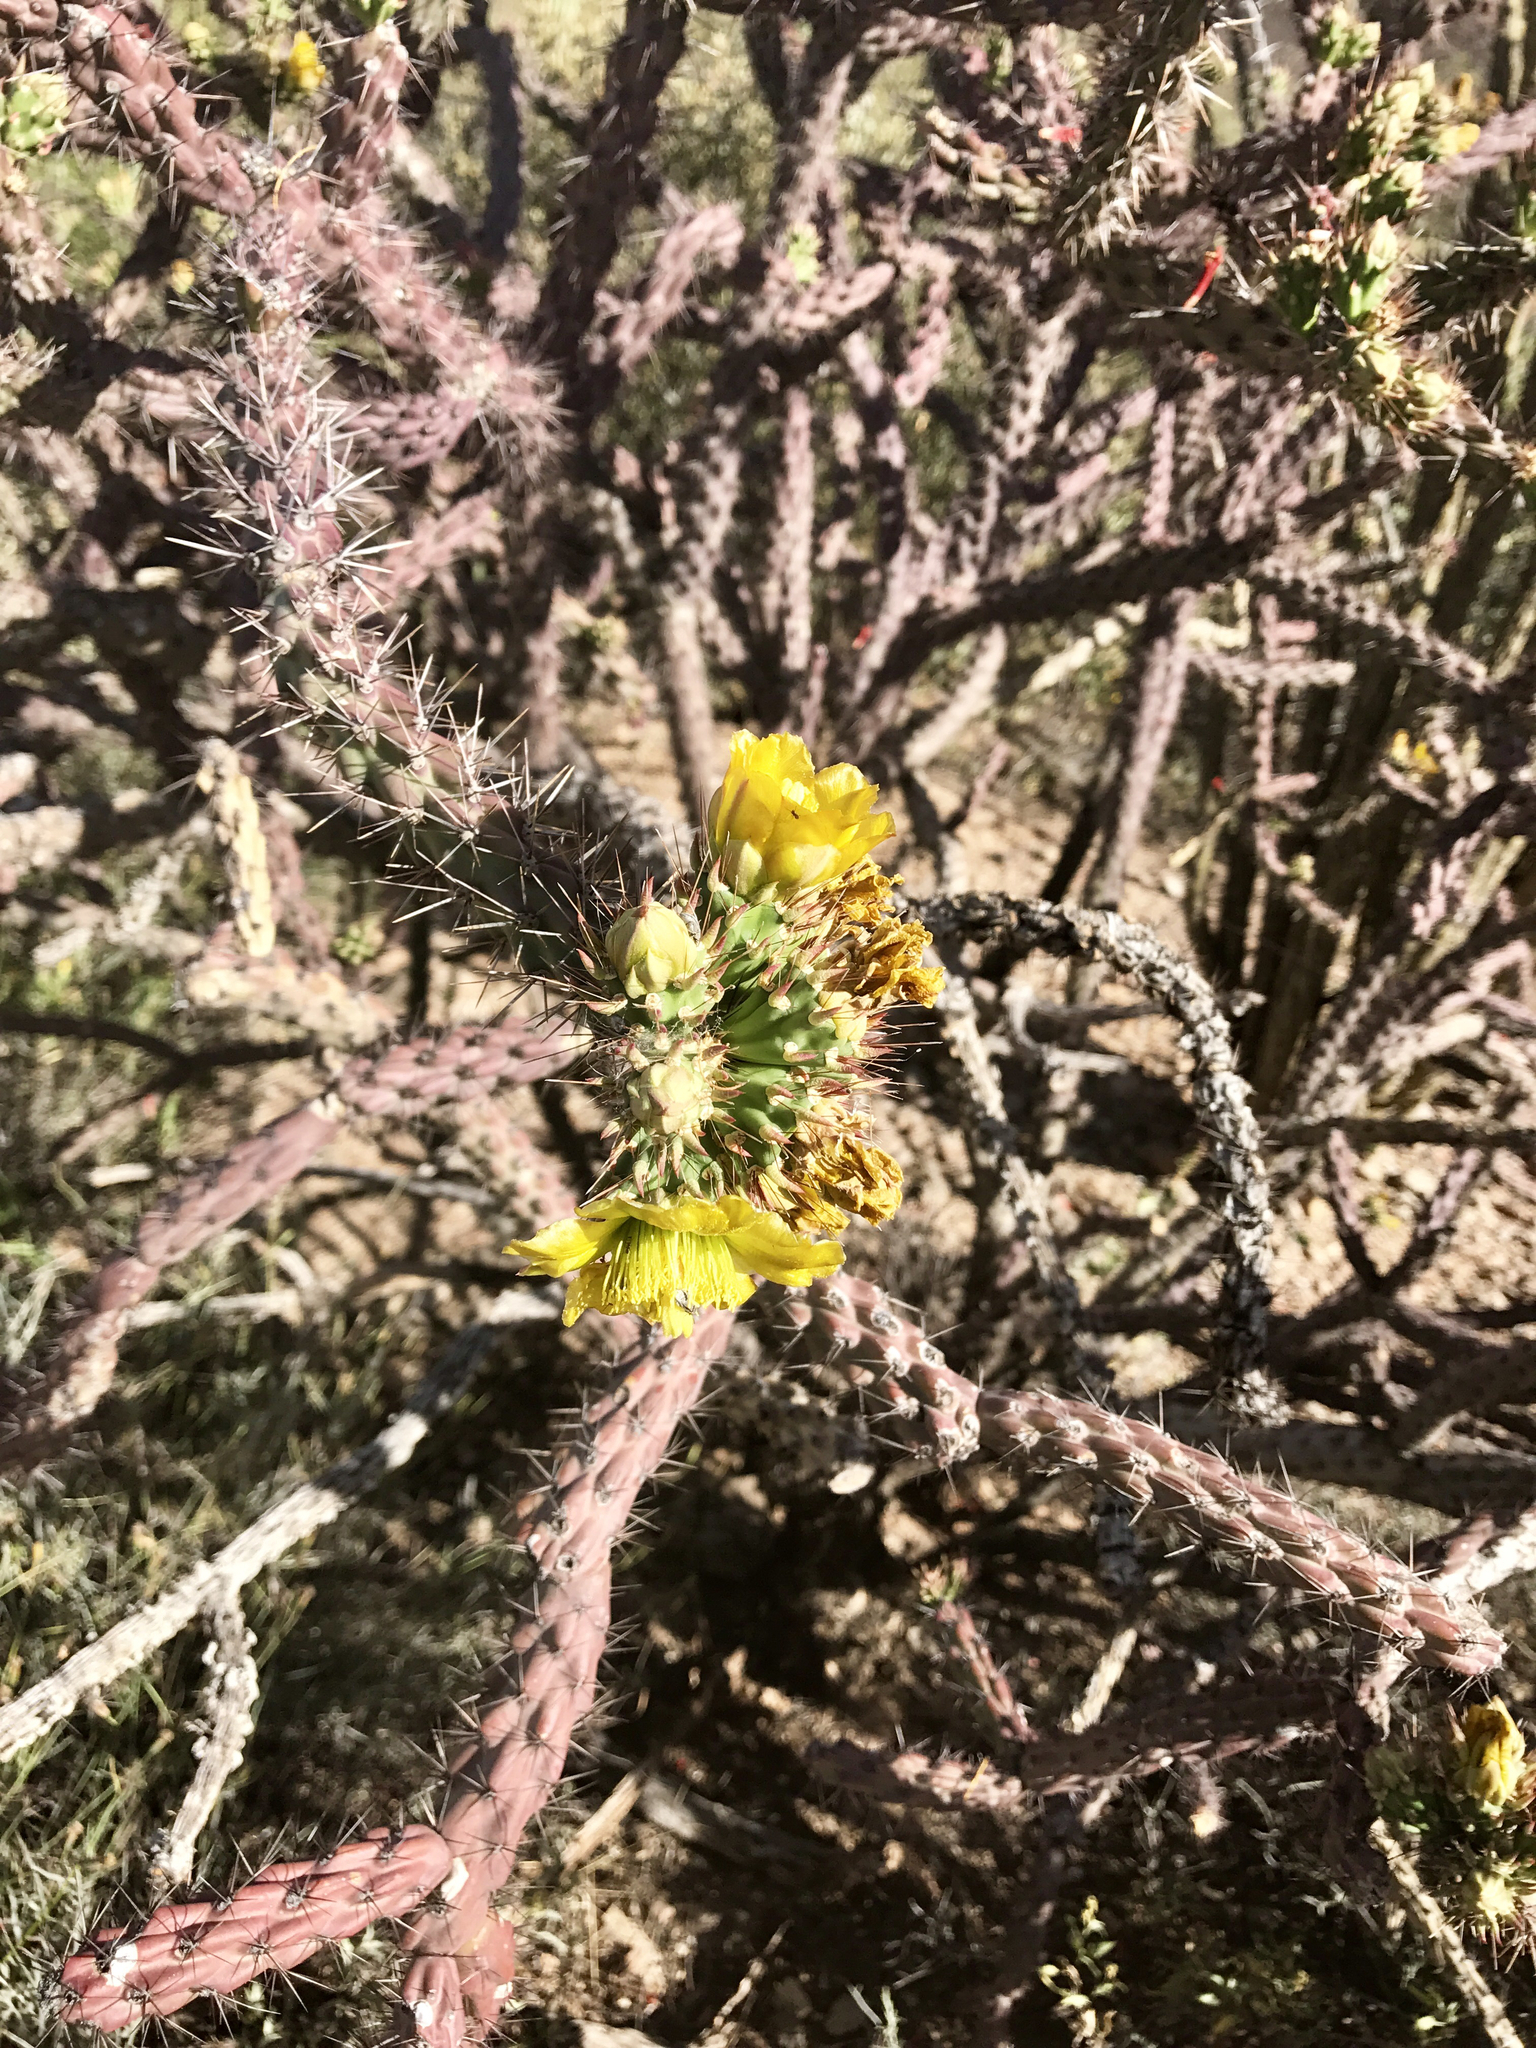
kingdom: Plantae
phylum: Tracheophyta
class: Magnoliopsida
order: Caryophyllales
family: Cactaceae
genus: Cylindropuntia
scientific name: Cylindropuntia thurberi
